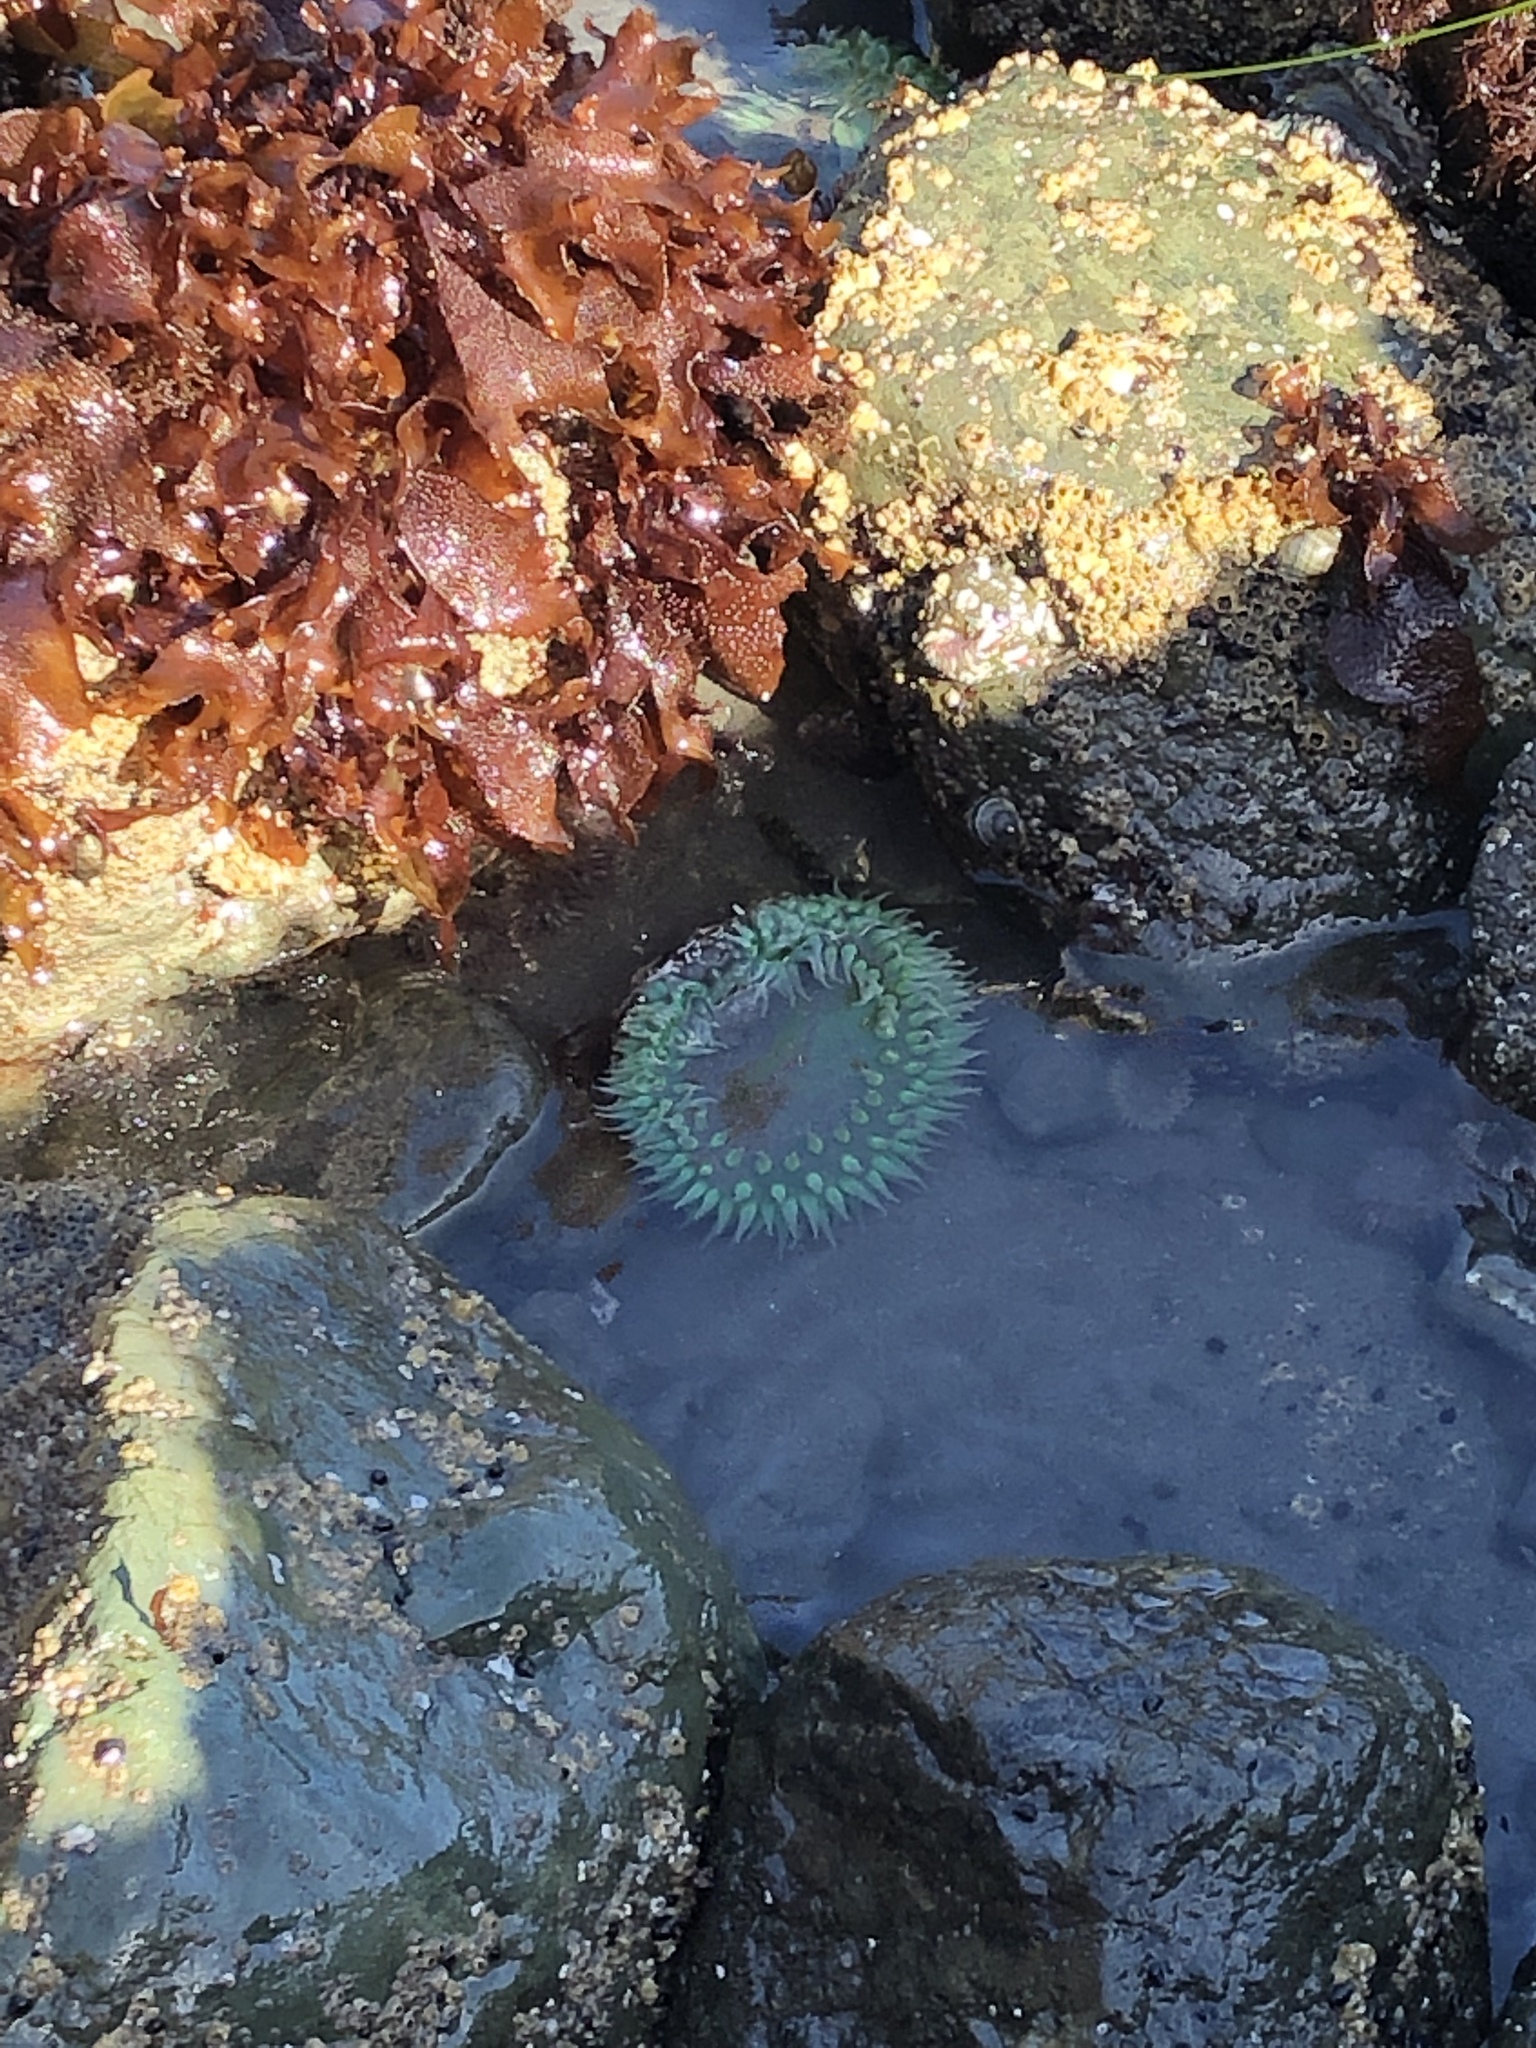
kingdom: Animalia
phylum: Cnidaria
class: Anthozoa
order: Actiniaria
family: Actiniidae
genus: Anthopleura
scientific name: Anthopleura xanthogrammica
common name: Giant green anemone
